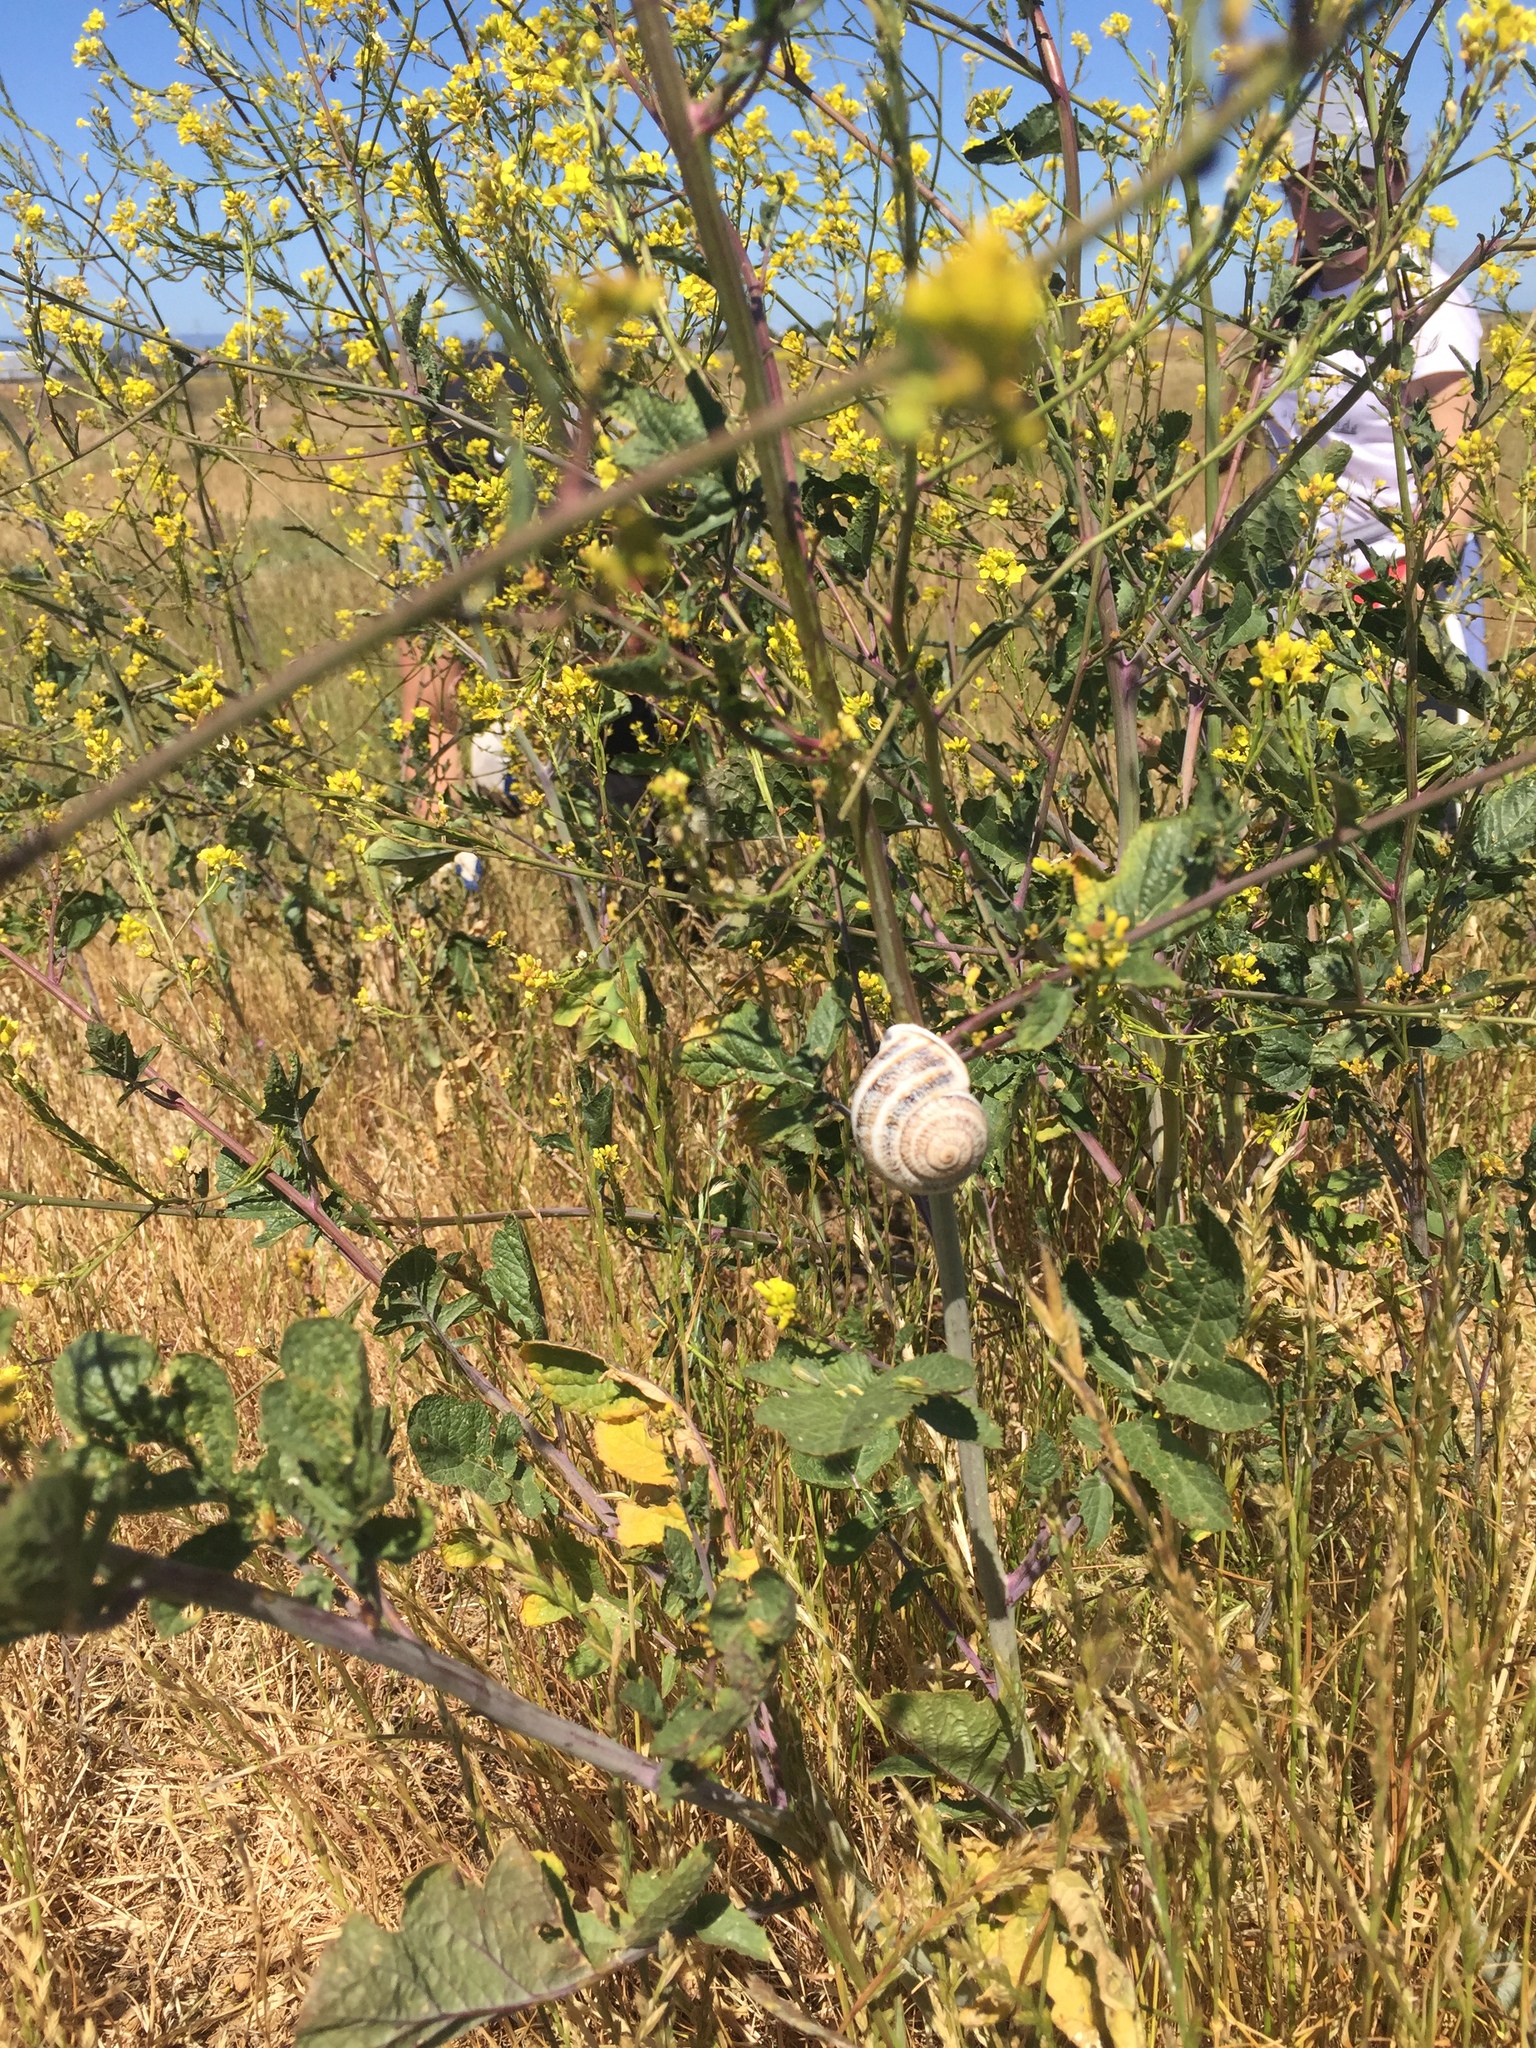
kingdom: Animalia
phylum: Mollusca
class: Gastropoda
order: Stylommatophora
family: Helicidae
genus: Otala
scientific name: Otala lactea
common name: Milk snail
